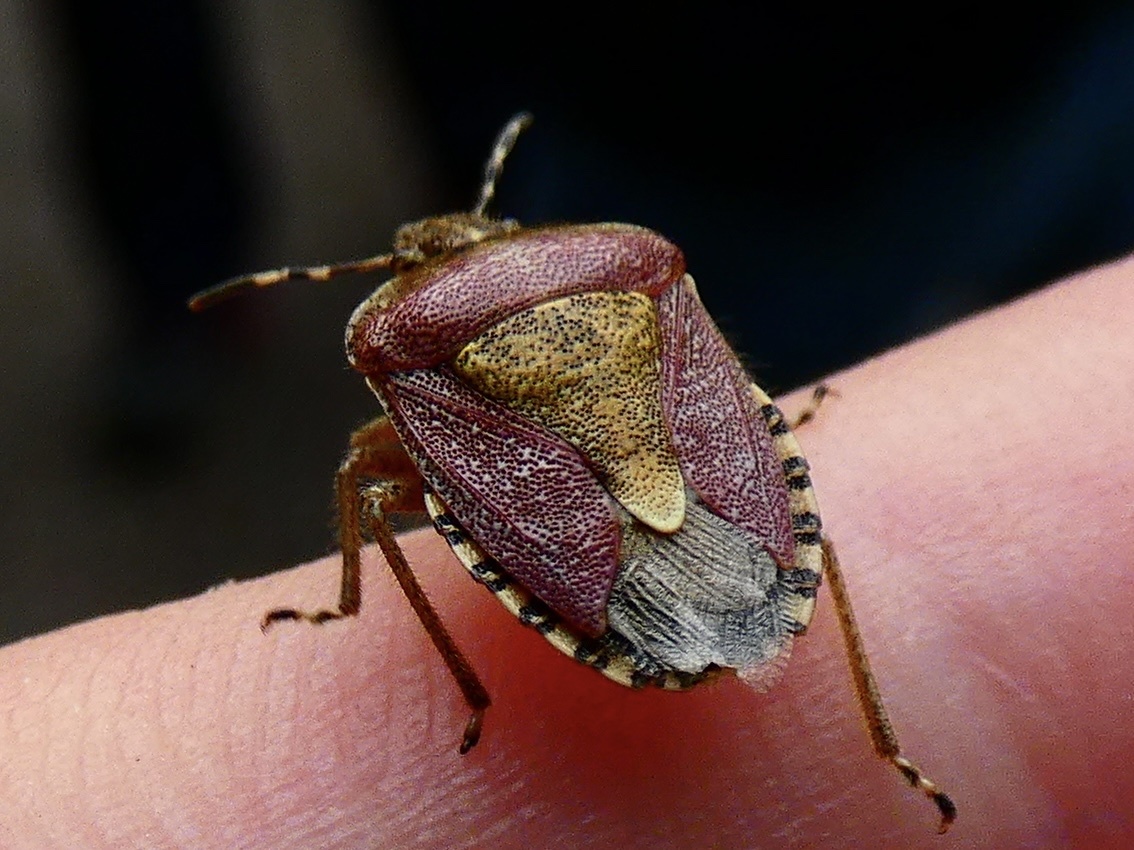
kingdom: Animalia
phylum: Arthropoda
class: Insecta
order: Hemiptera
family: Pentatomidae
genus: Dolycoris
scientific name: Dolycoris baccarum
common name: Sloe bug
